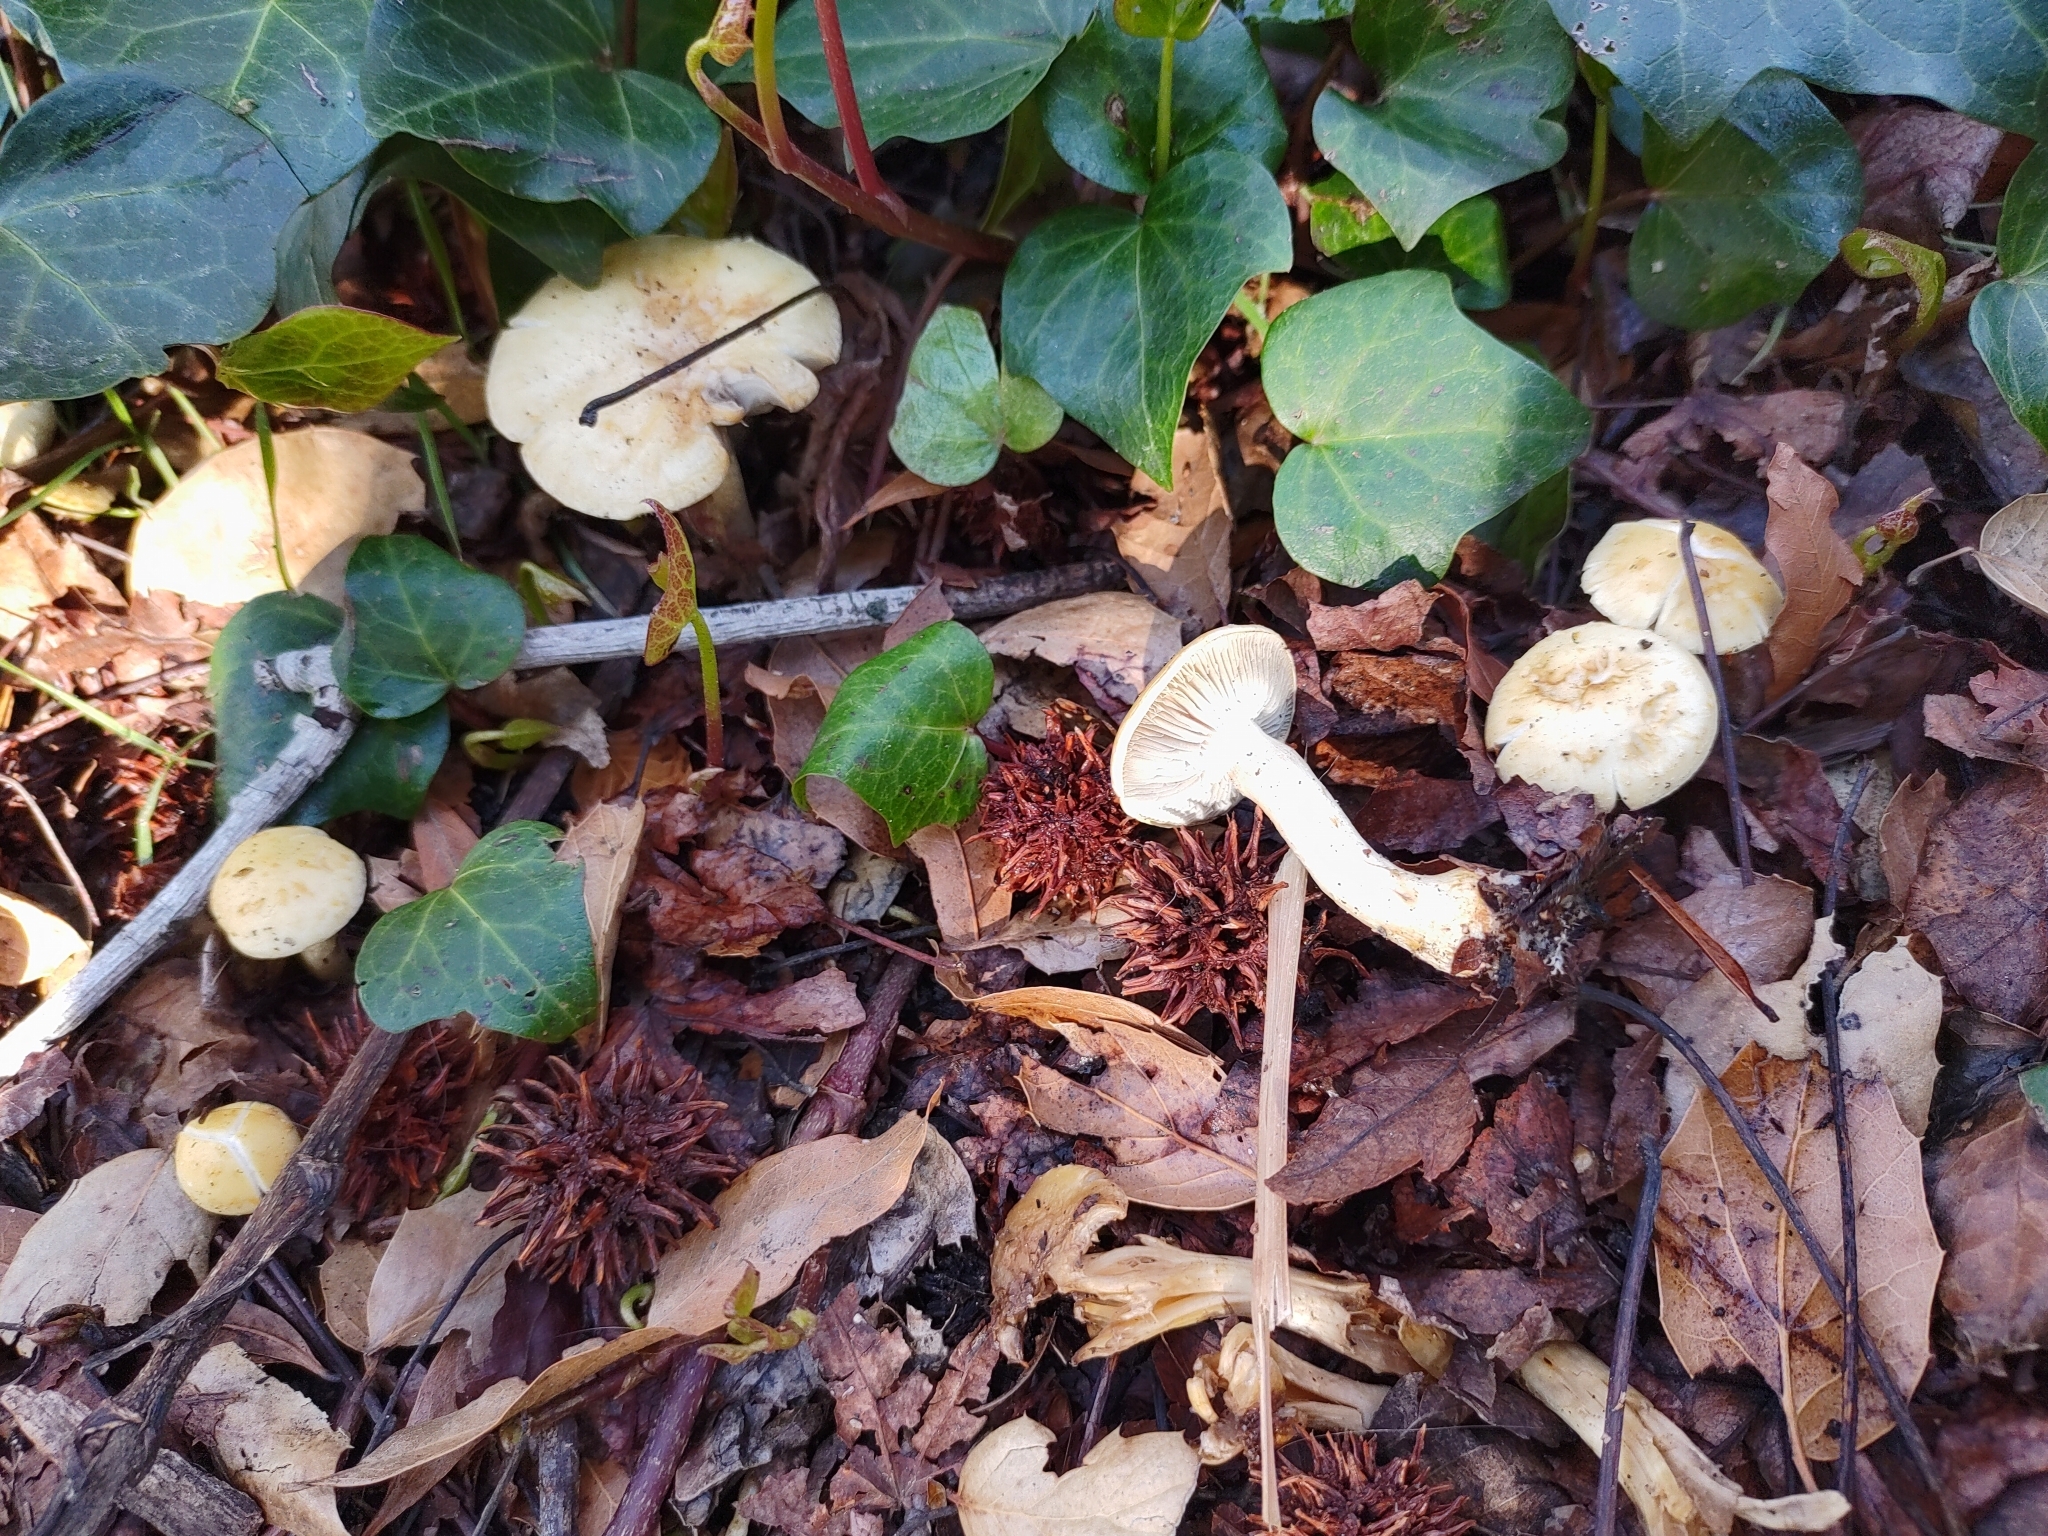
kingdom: Fungi
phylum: Basidiomycota
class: Agaricomycetes
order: Agaricales
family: Strophariaceae
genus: Leratiomyces
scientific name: Leratiomyces percevalii
